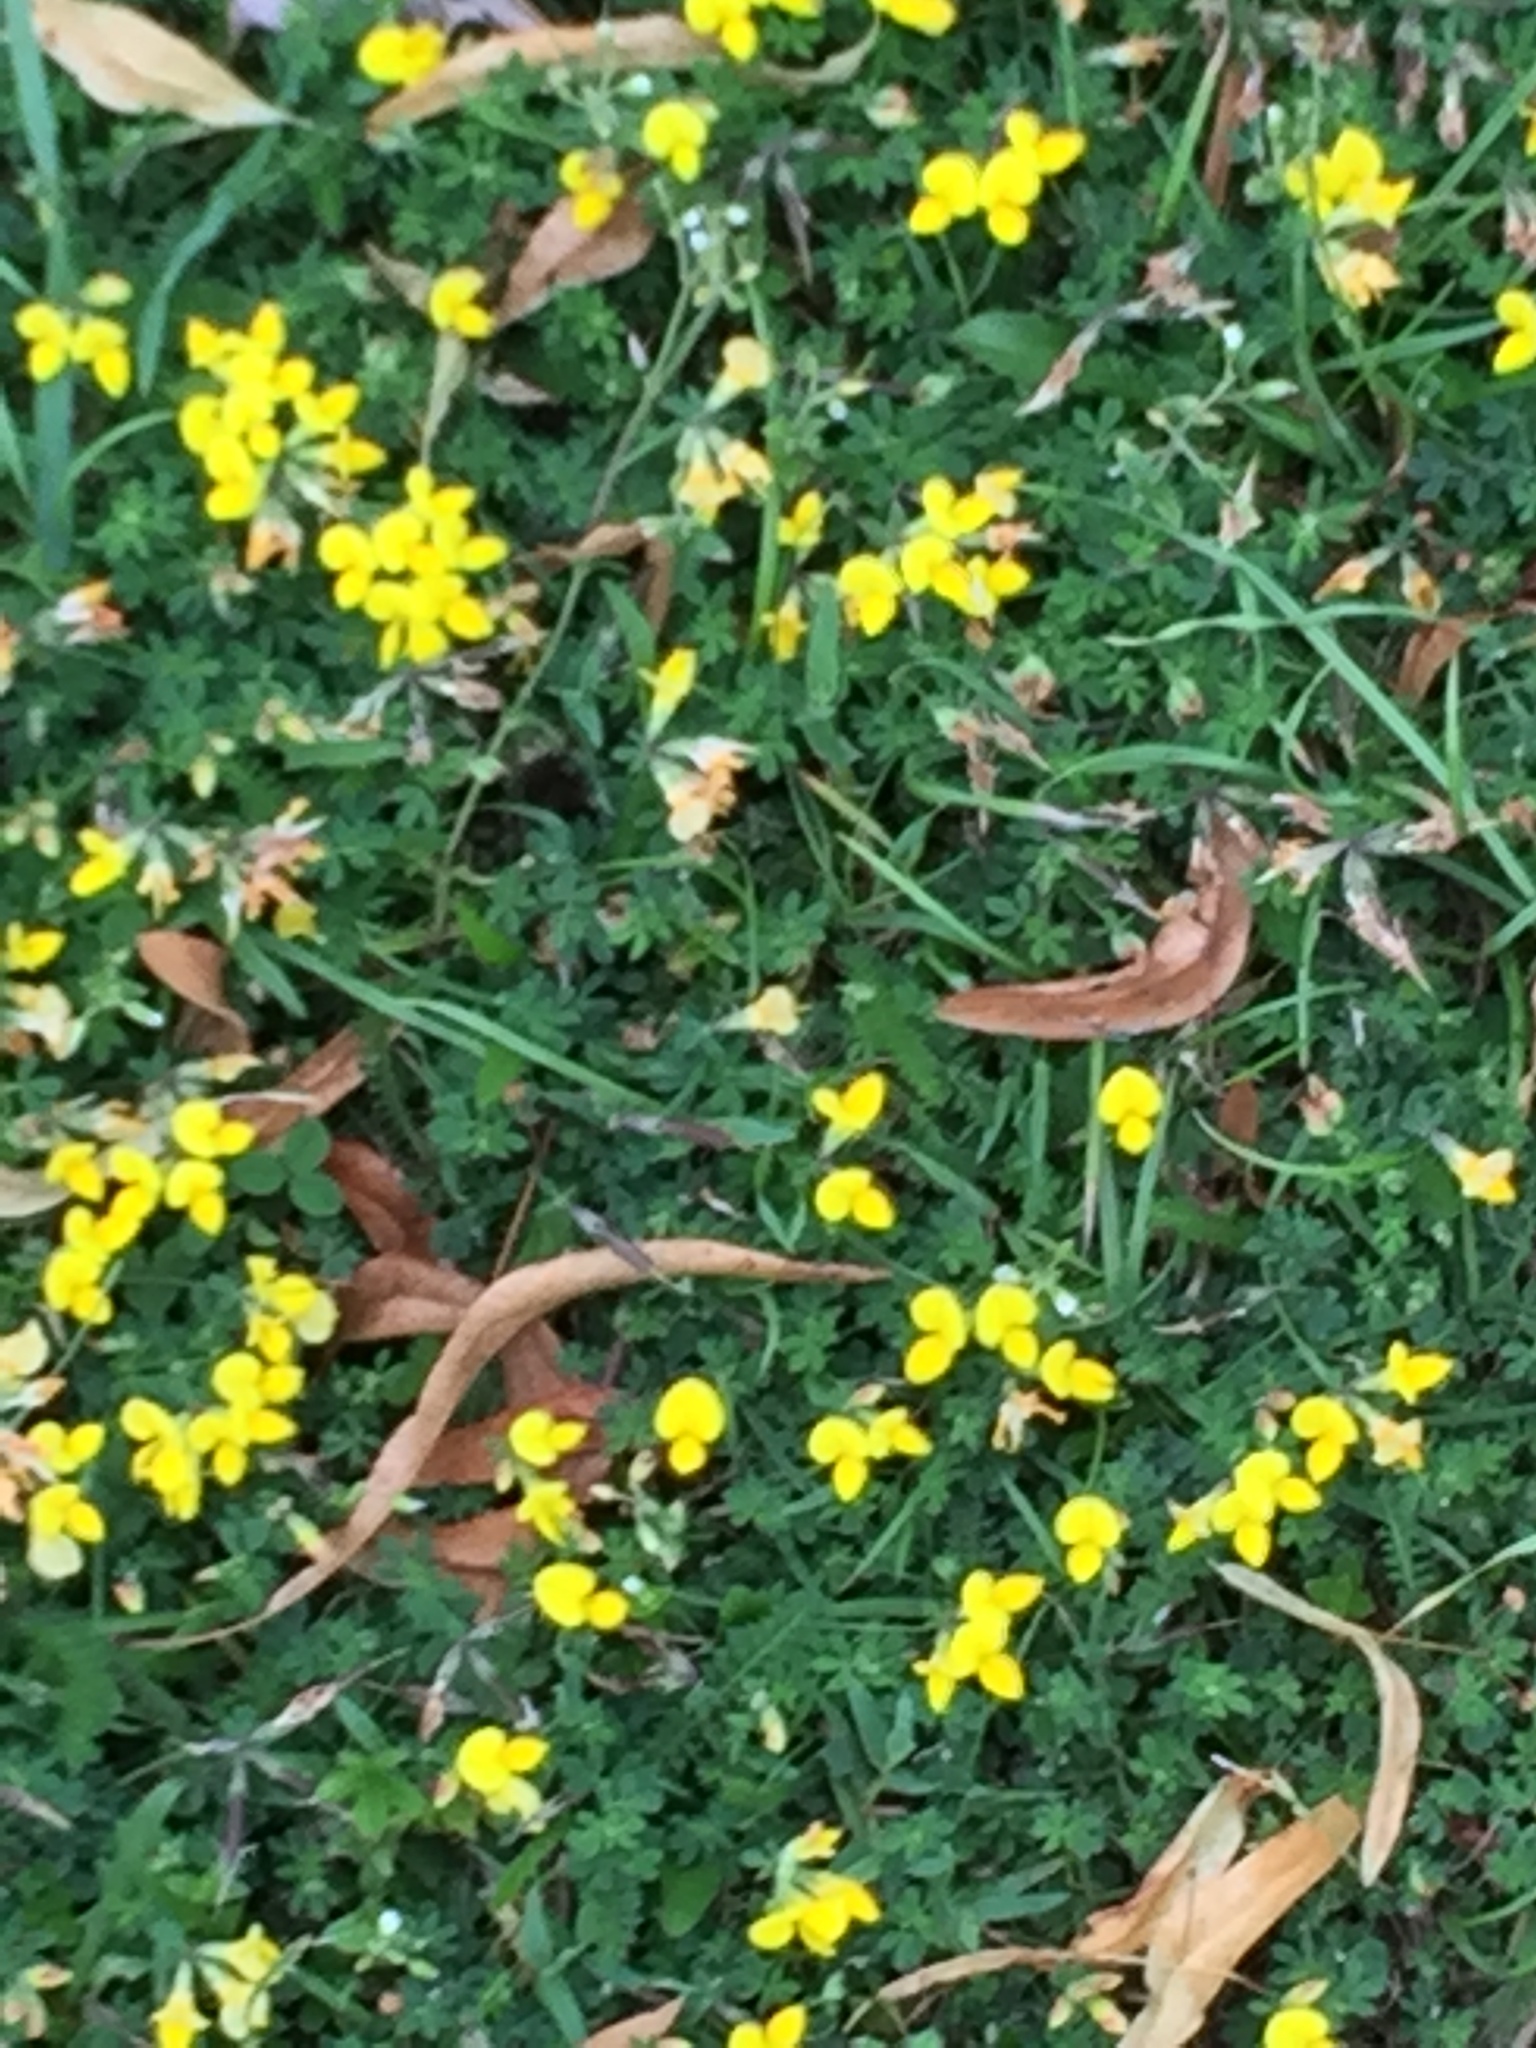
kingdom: Plantae
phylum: Tracheophyta
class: Magnoliopsida
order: Fabales
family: Fabaceae
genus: Lotus
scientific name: Lotus corniculatus
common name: Common bird's-foot-trefoil
